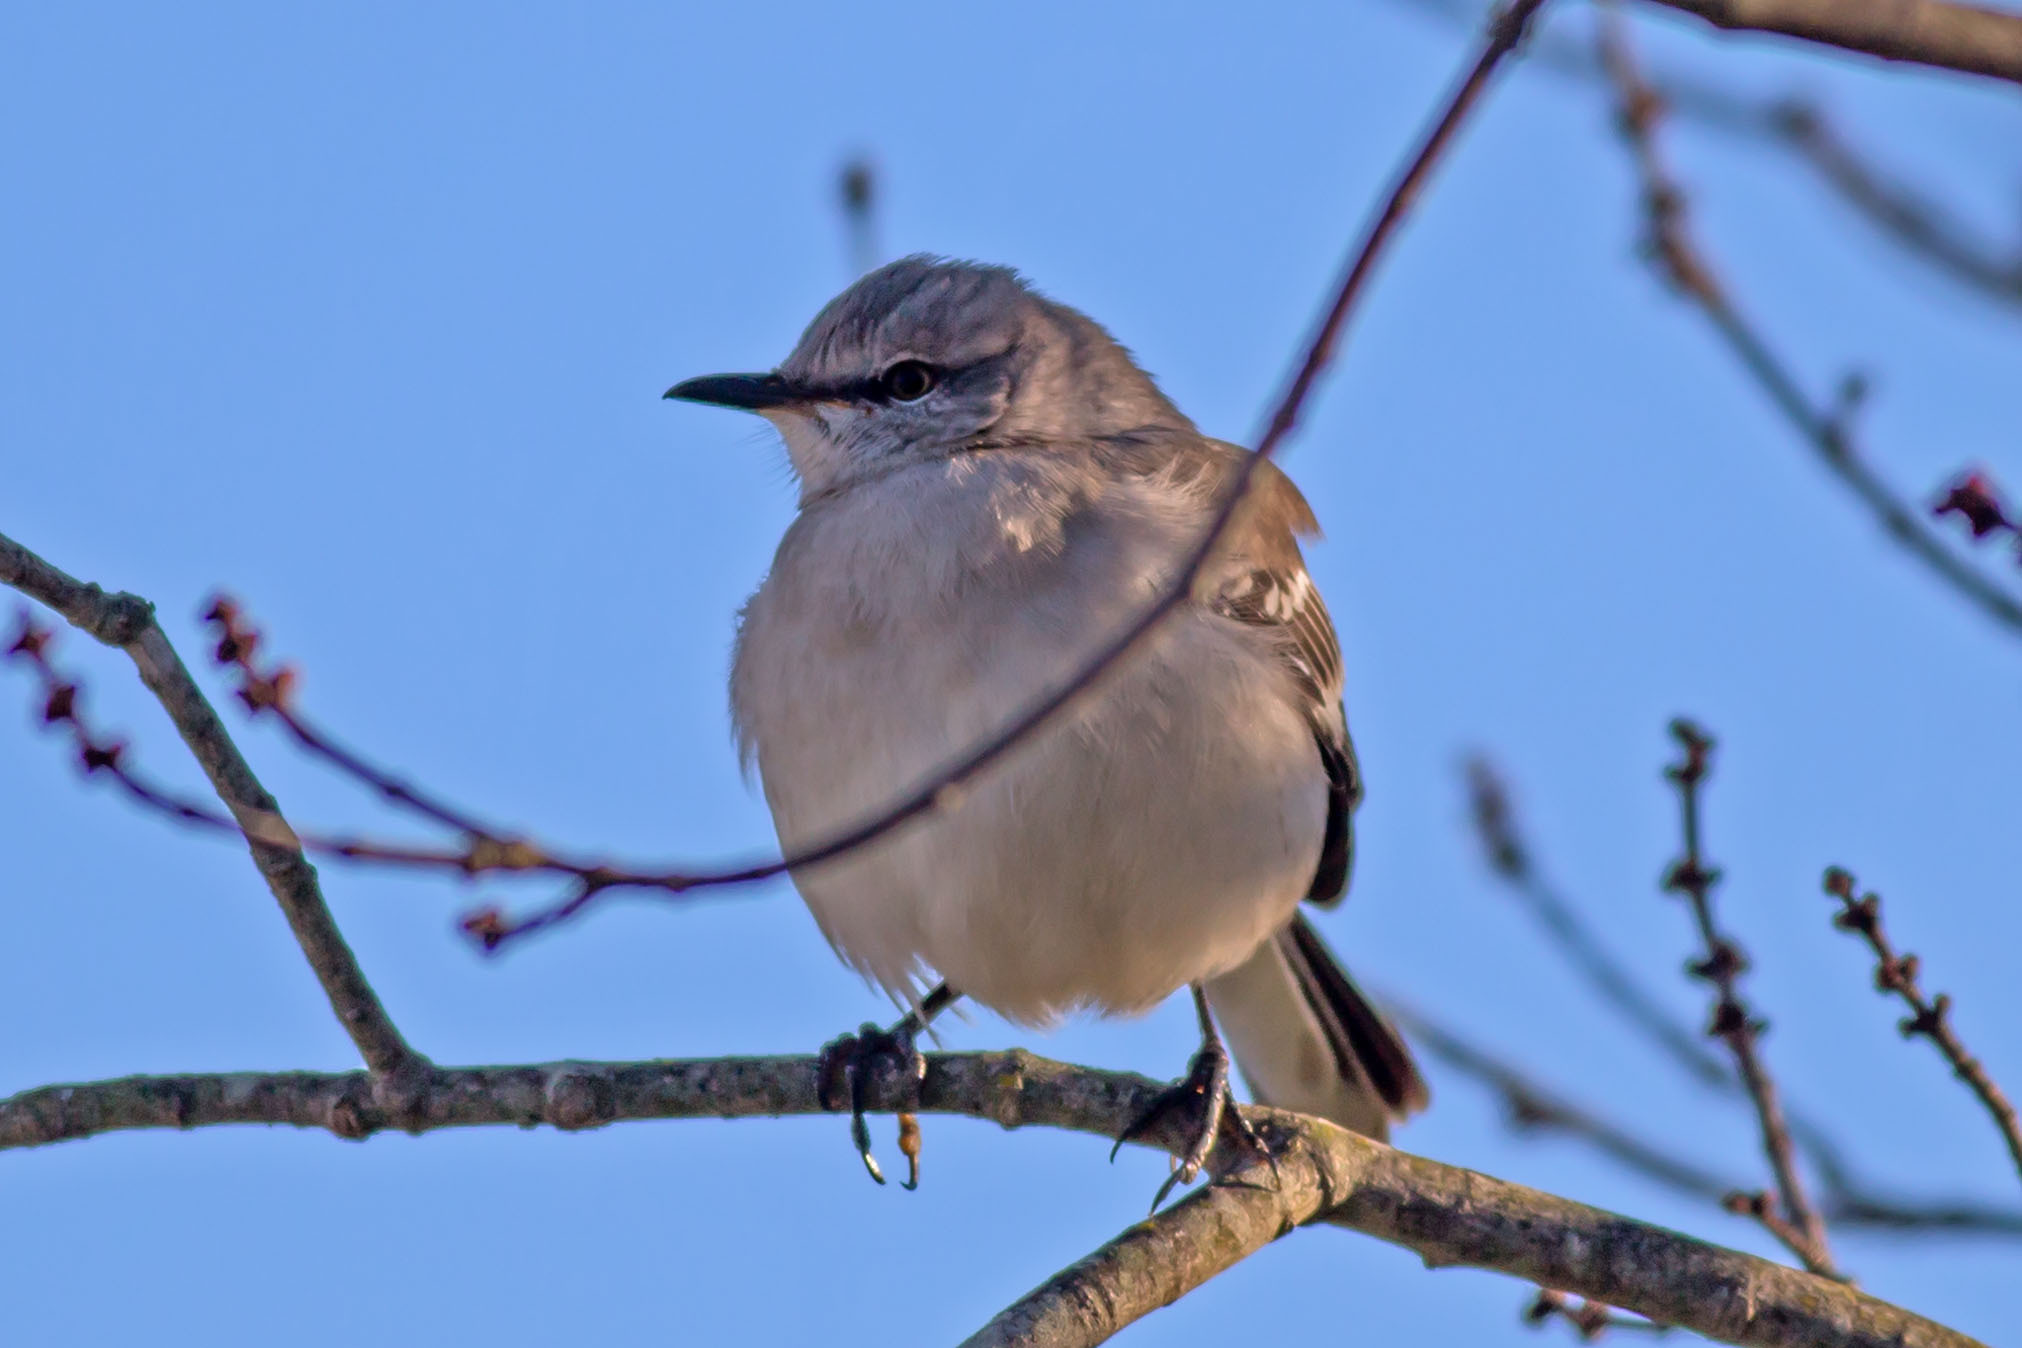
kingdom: Animalia
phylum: Chordata
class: Aves
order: Passeriformes
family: Mimidae
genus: Mimus
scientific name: Mimus polyglottos
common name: Northern mockingbird
